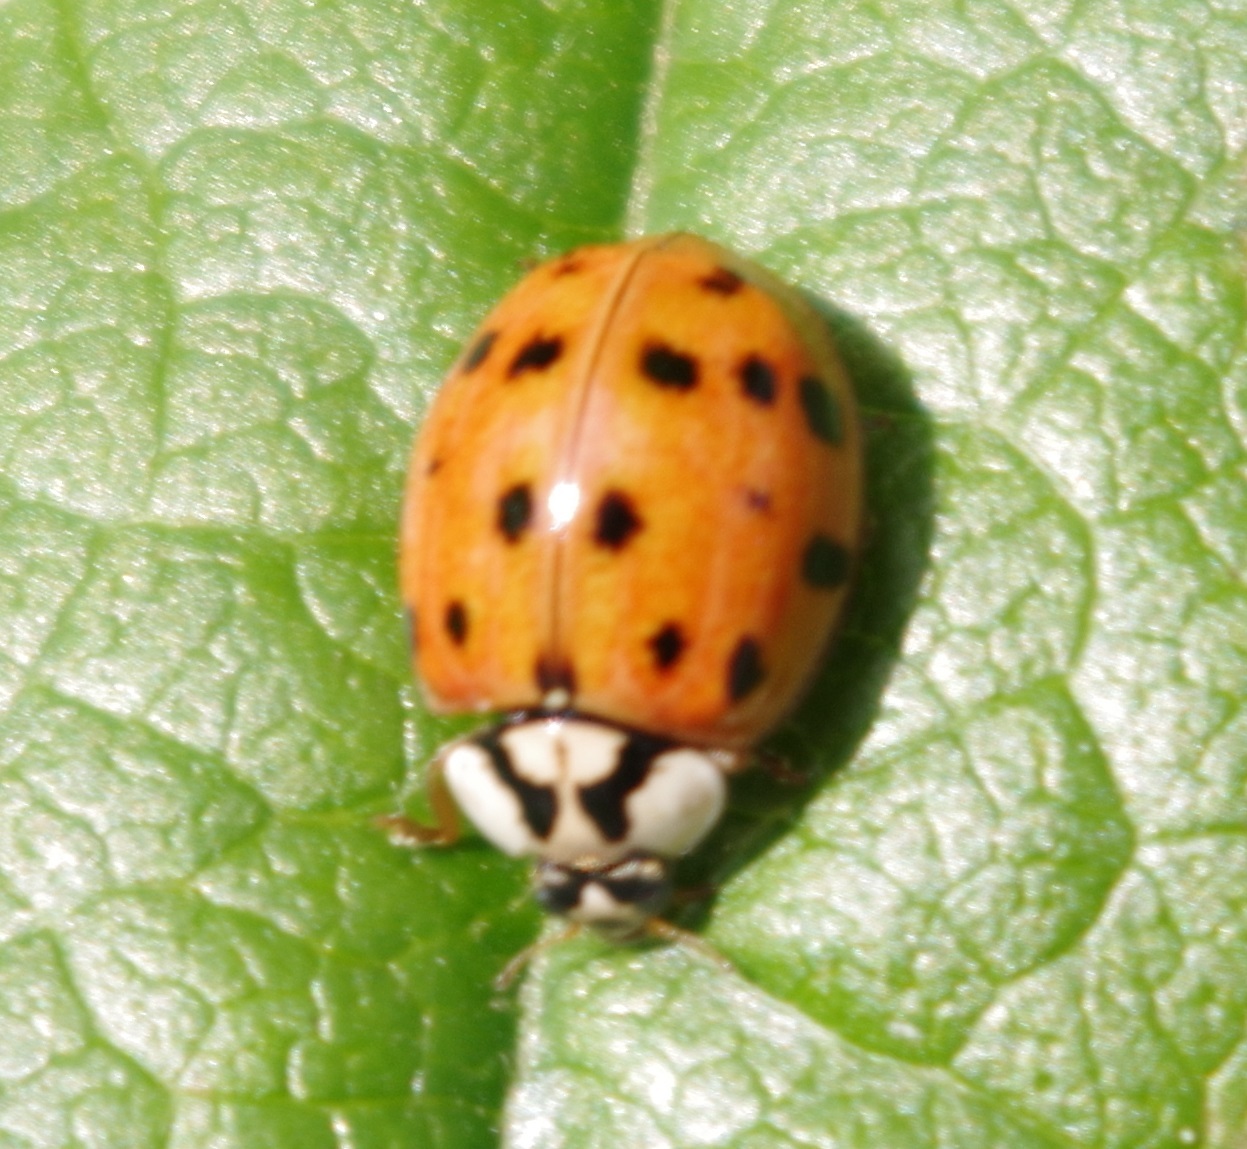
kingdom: Animalia
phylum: Arthropoda
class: Insecta
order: Coleoptera
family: Coccinellidae
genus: Harmonia
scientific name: Harmonia axyridis
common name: Harlequin ladybird
